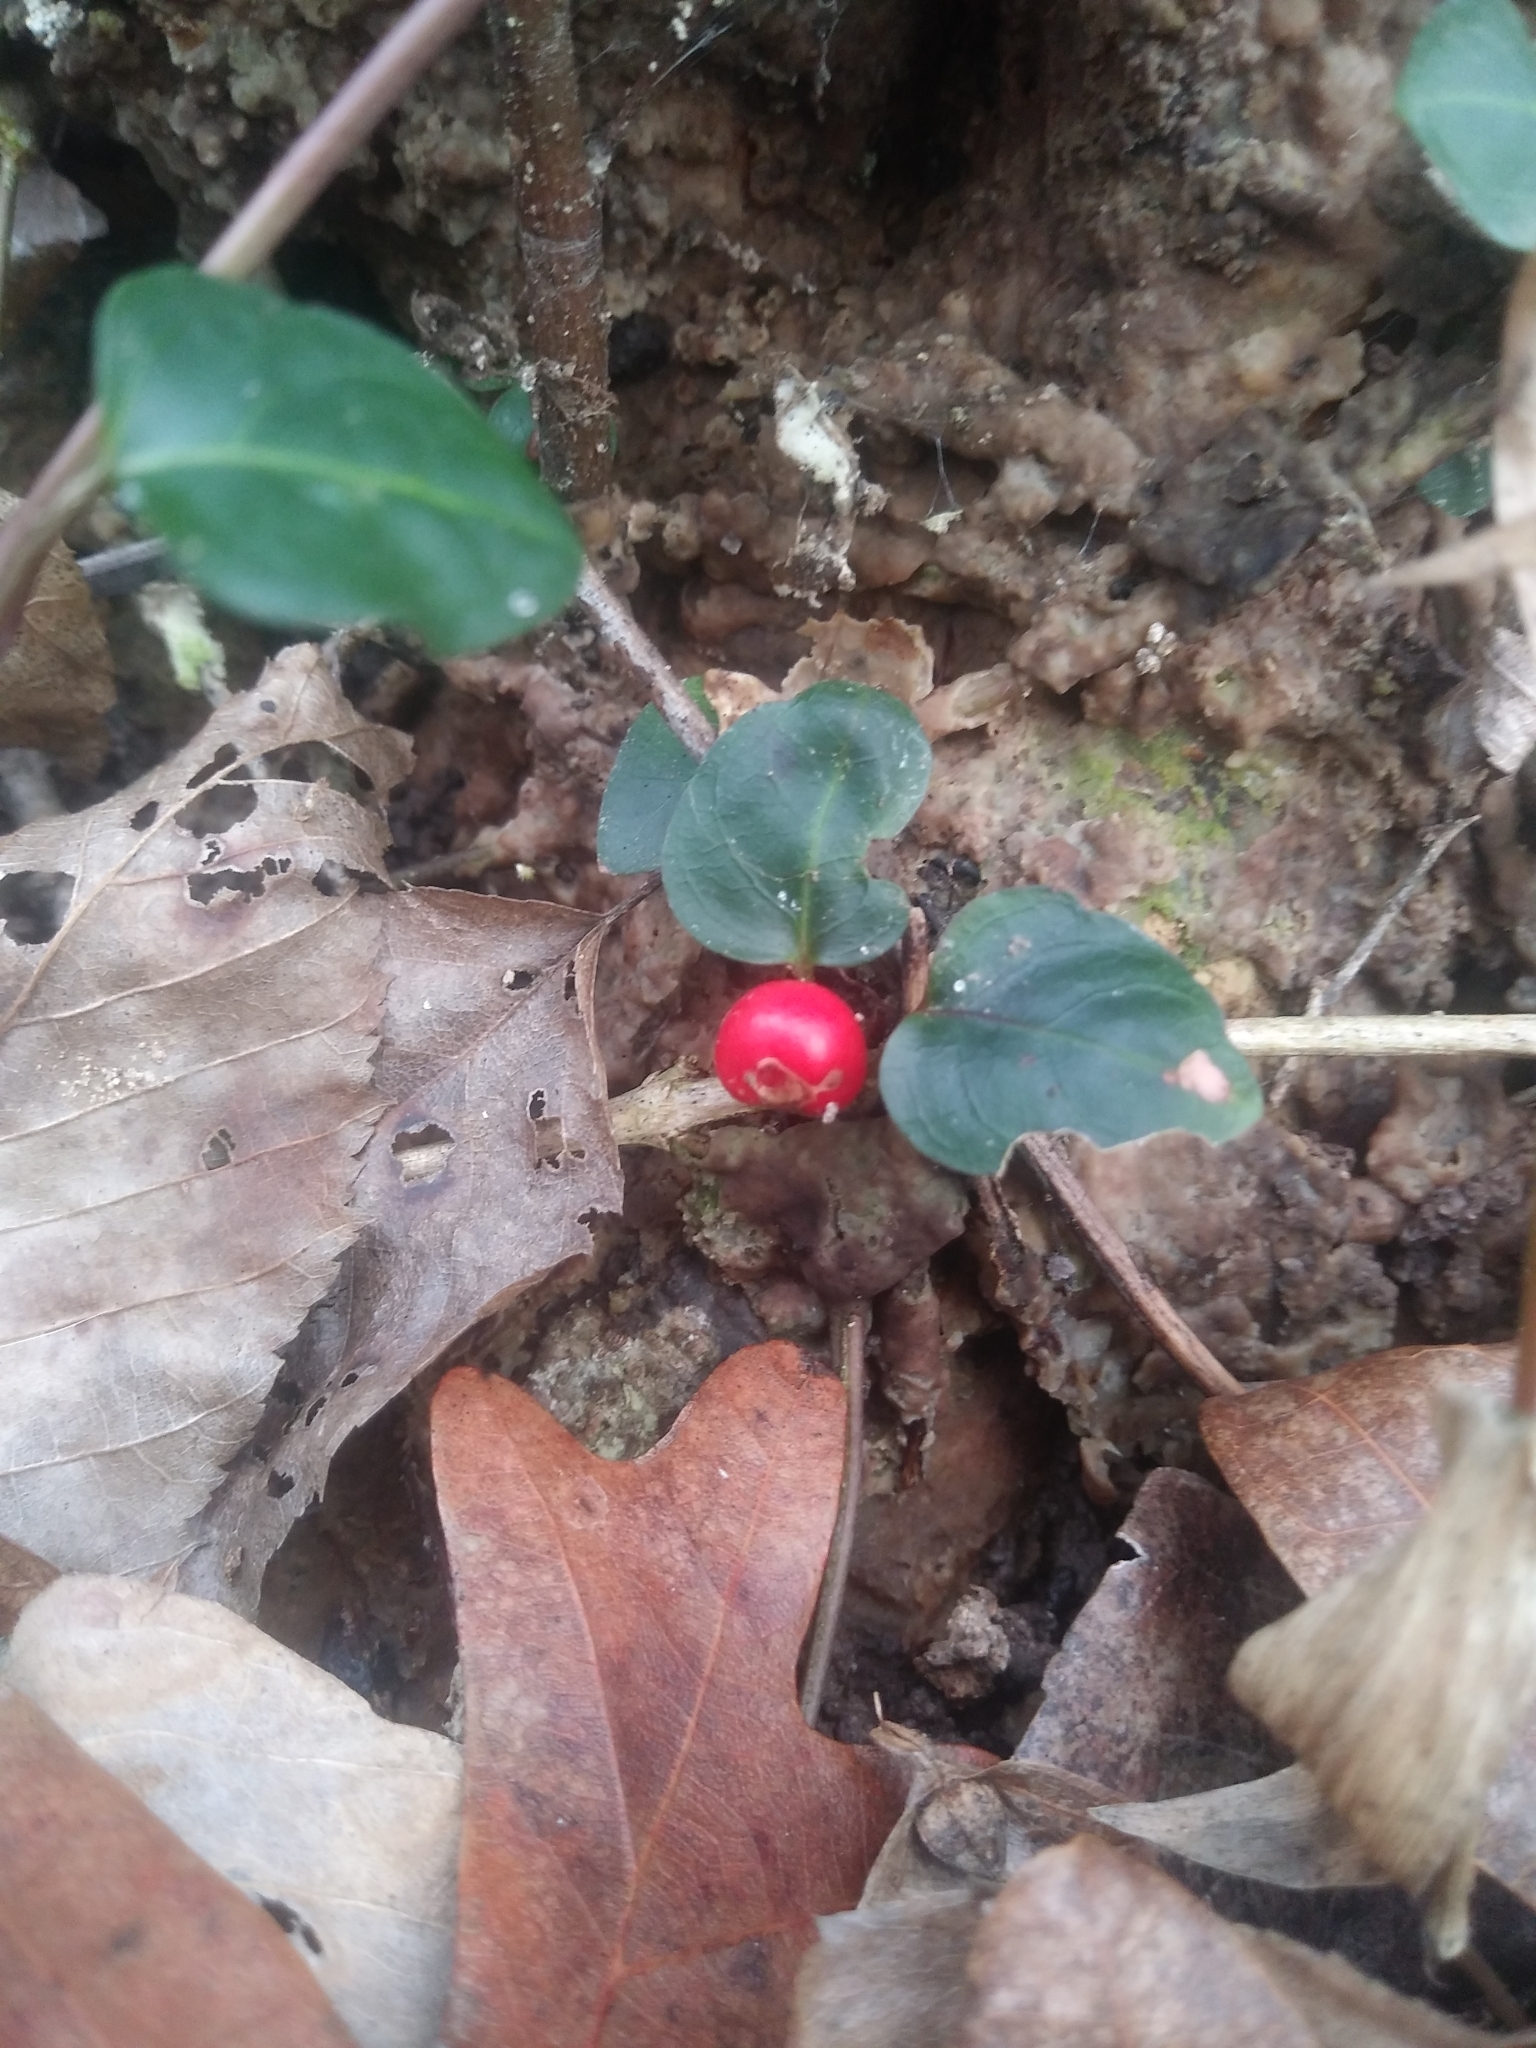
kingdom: Plantae
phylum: Tracheophyta
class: Magnoliopsida
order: Gentianales
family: Rubiaceae
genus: Mitchella
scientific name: Mitchella repens
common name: Partridge-berry
